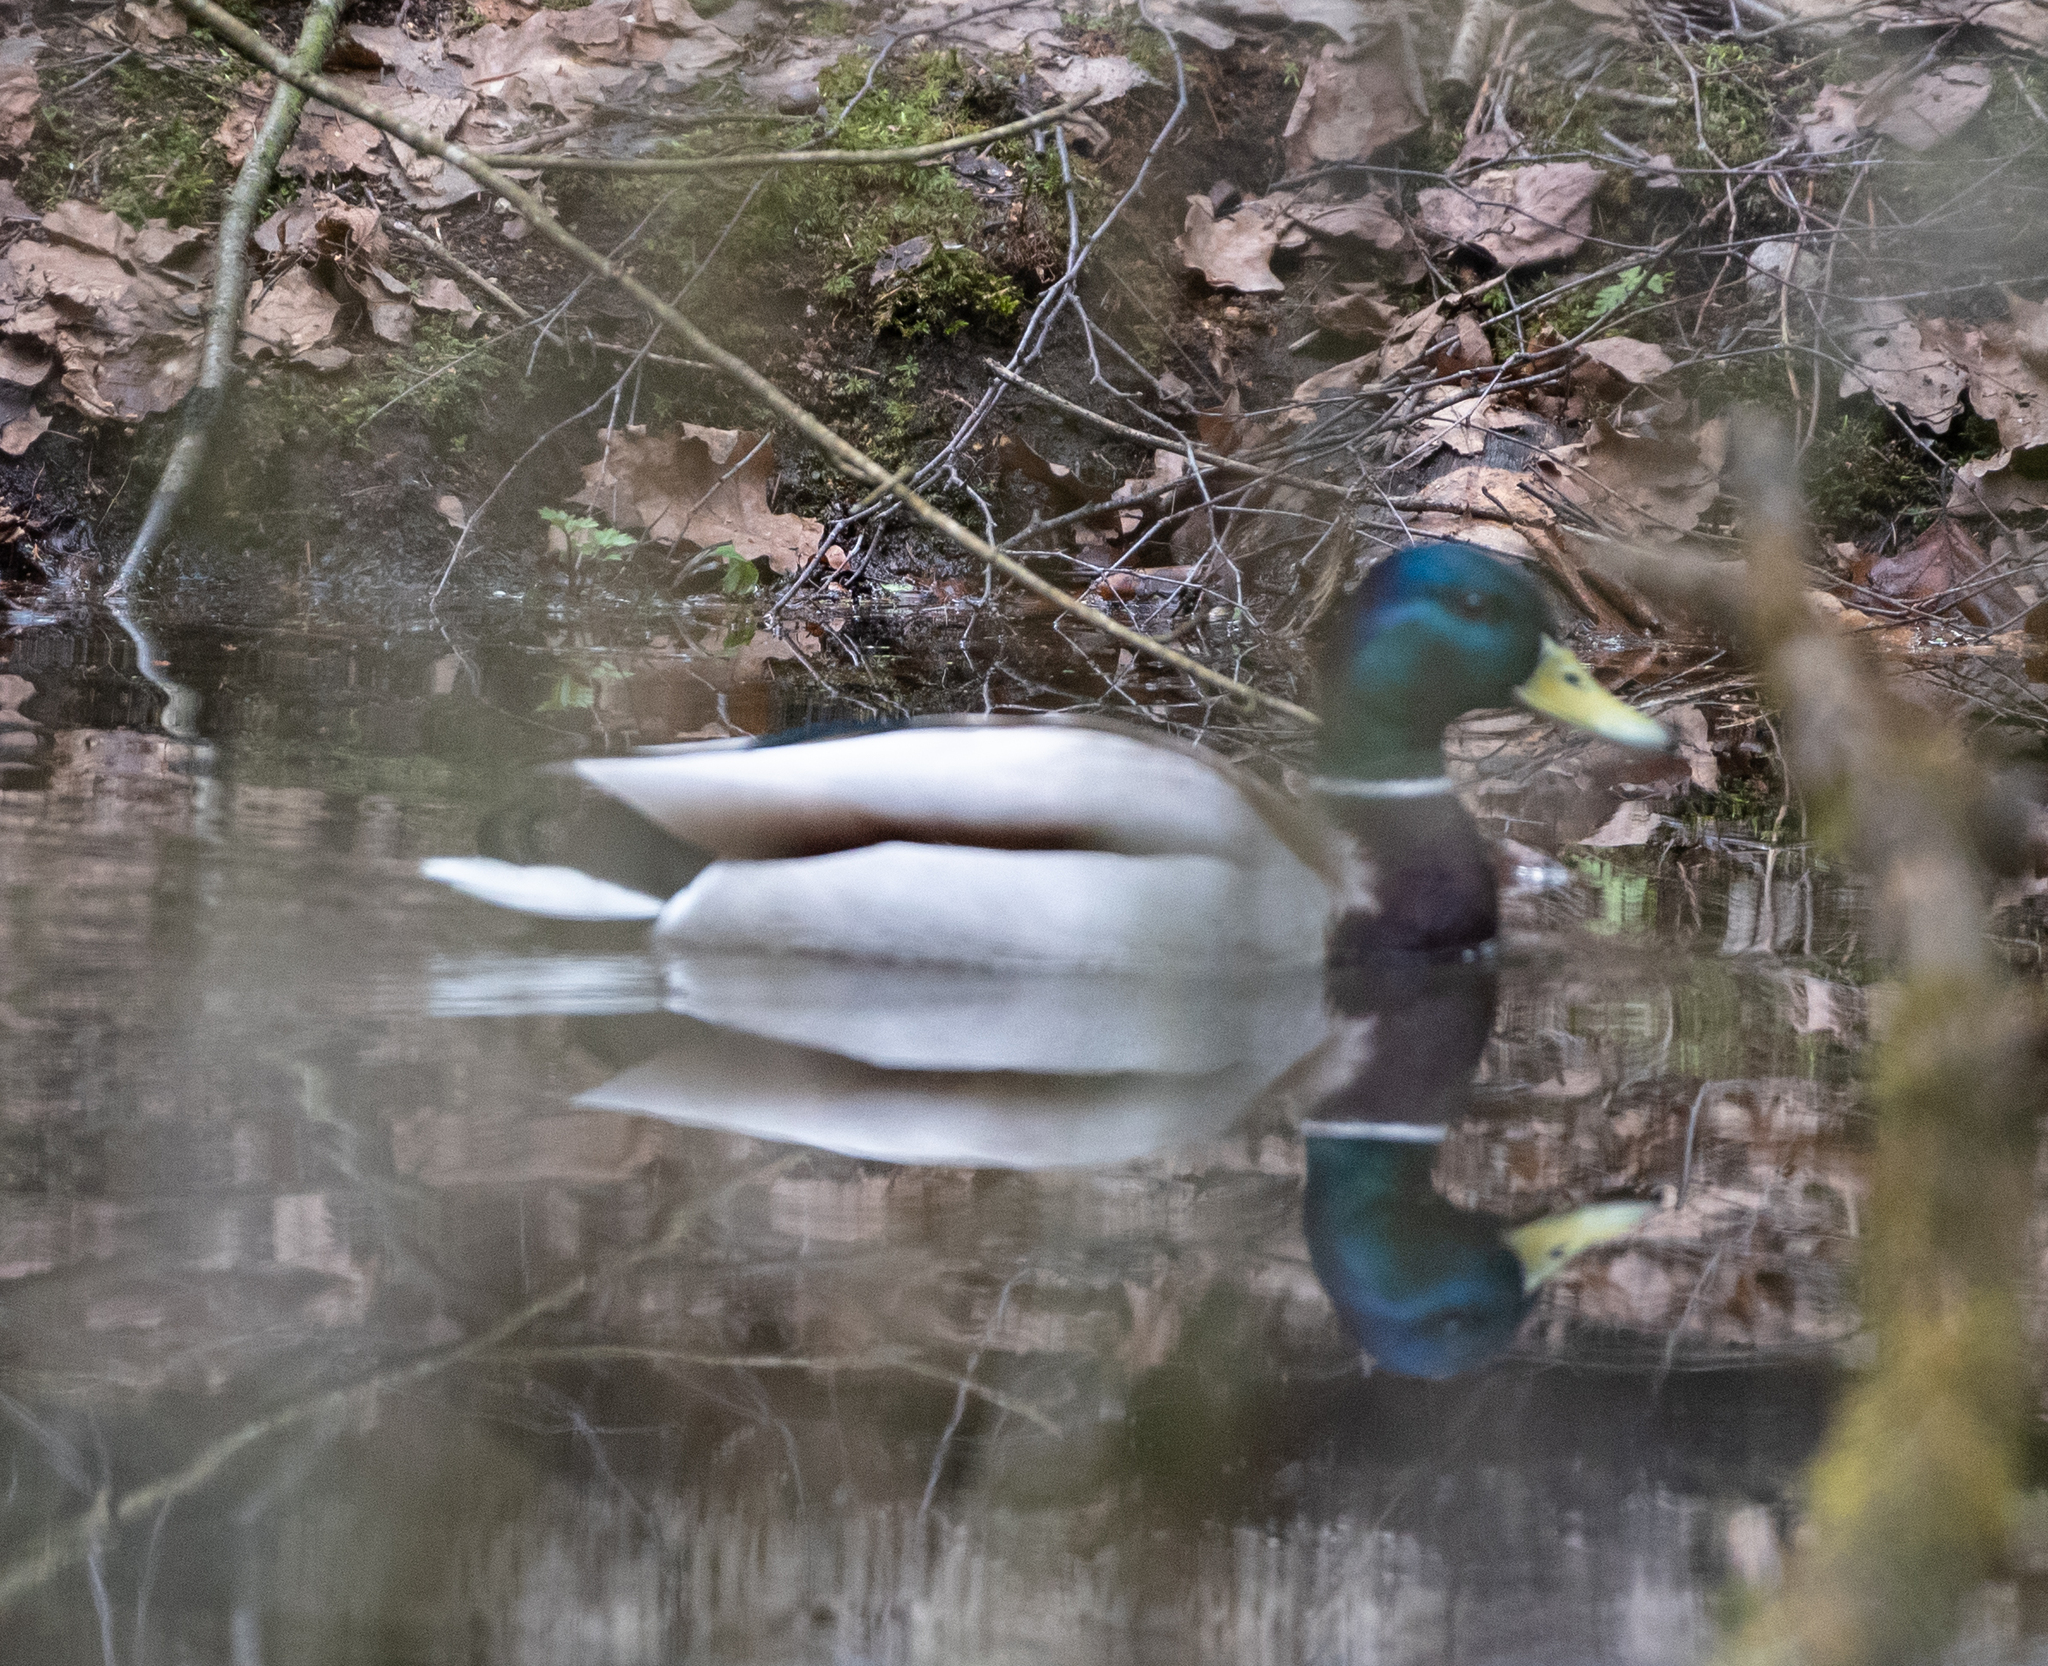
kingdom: Animalia
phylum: Chordata
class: Aves
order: Anseriformes
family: Anatidae
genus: Anas
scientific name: Anas platyrhynchos
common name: Mallard
